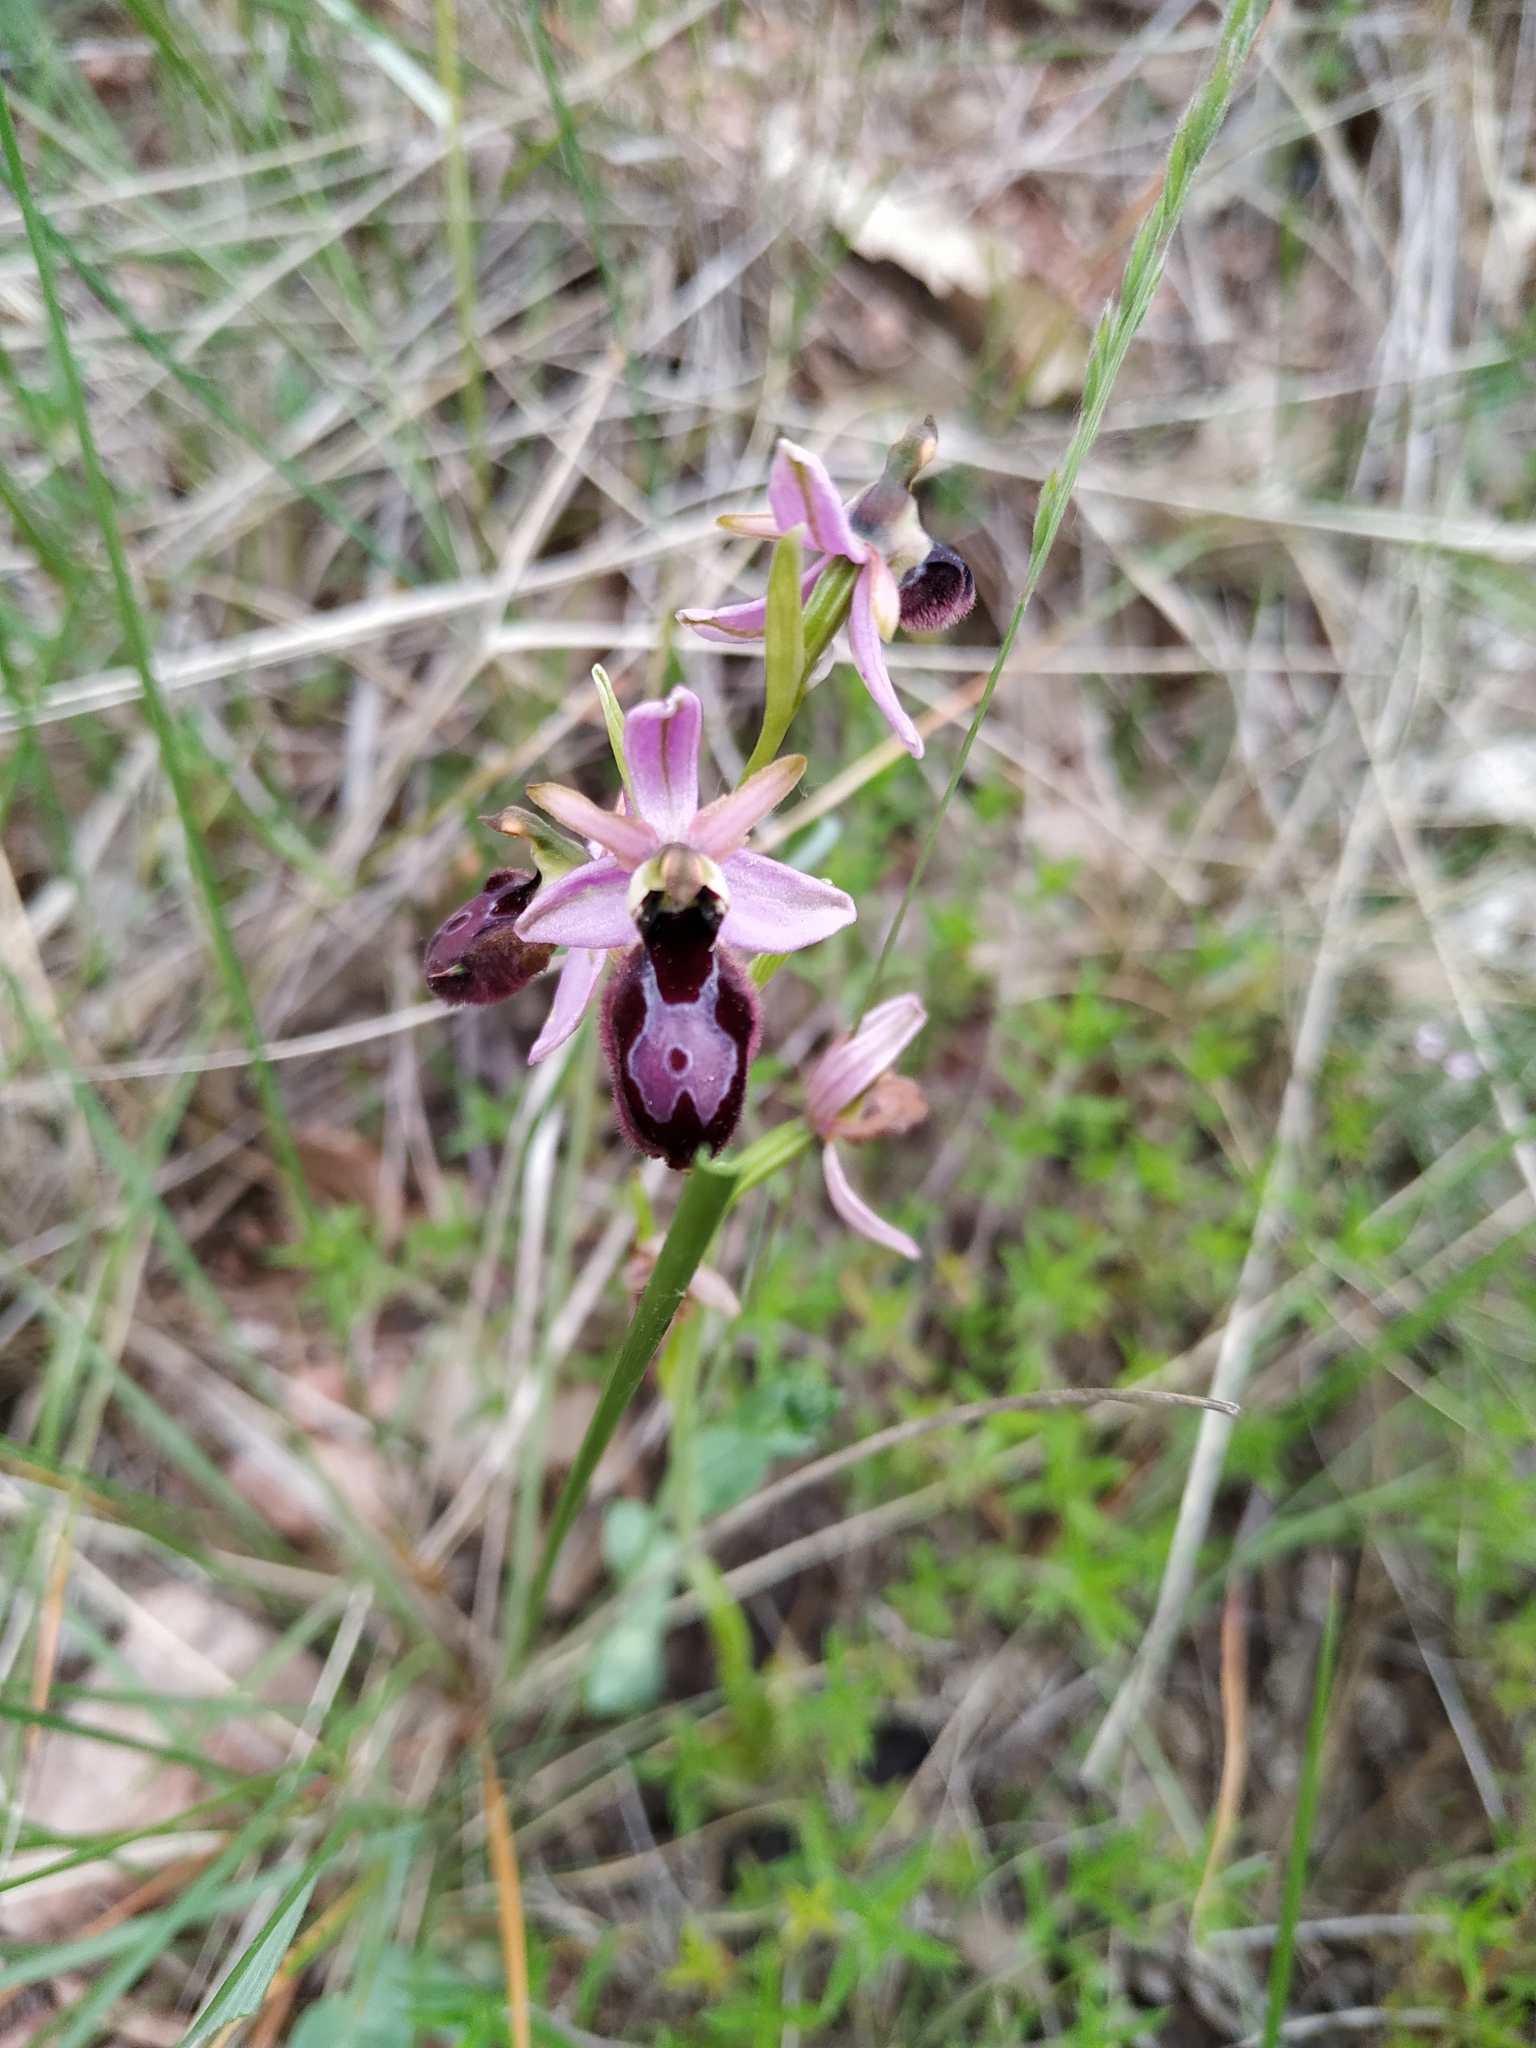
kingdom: Plantae
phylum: Tracheophyta
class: Liliopsida
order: Asparagales
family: Orchidaceae
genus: Ophrys
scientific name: Ophrys flavicans
